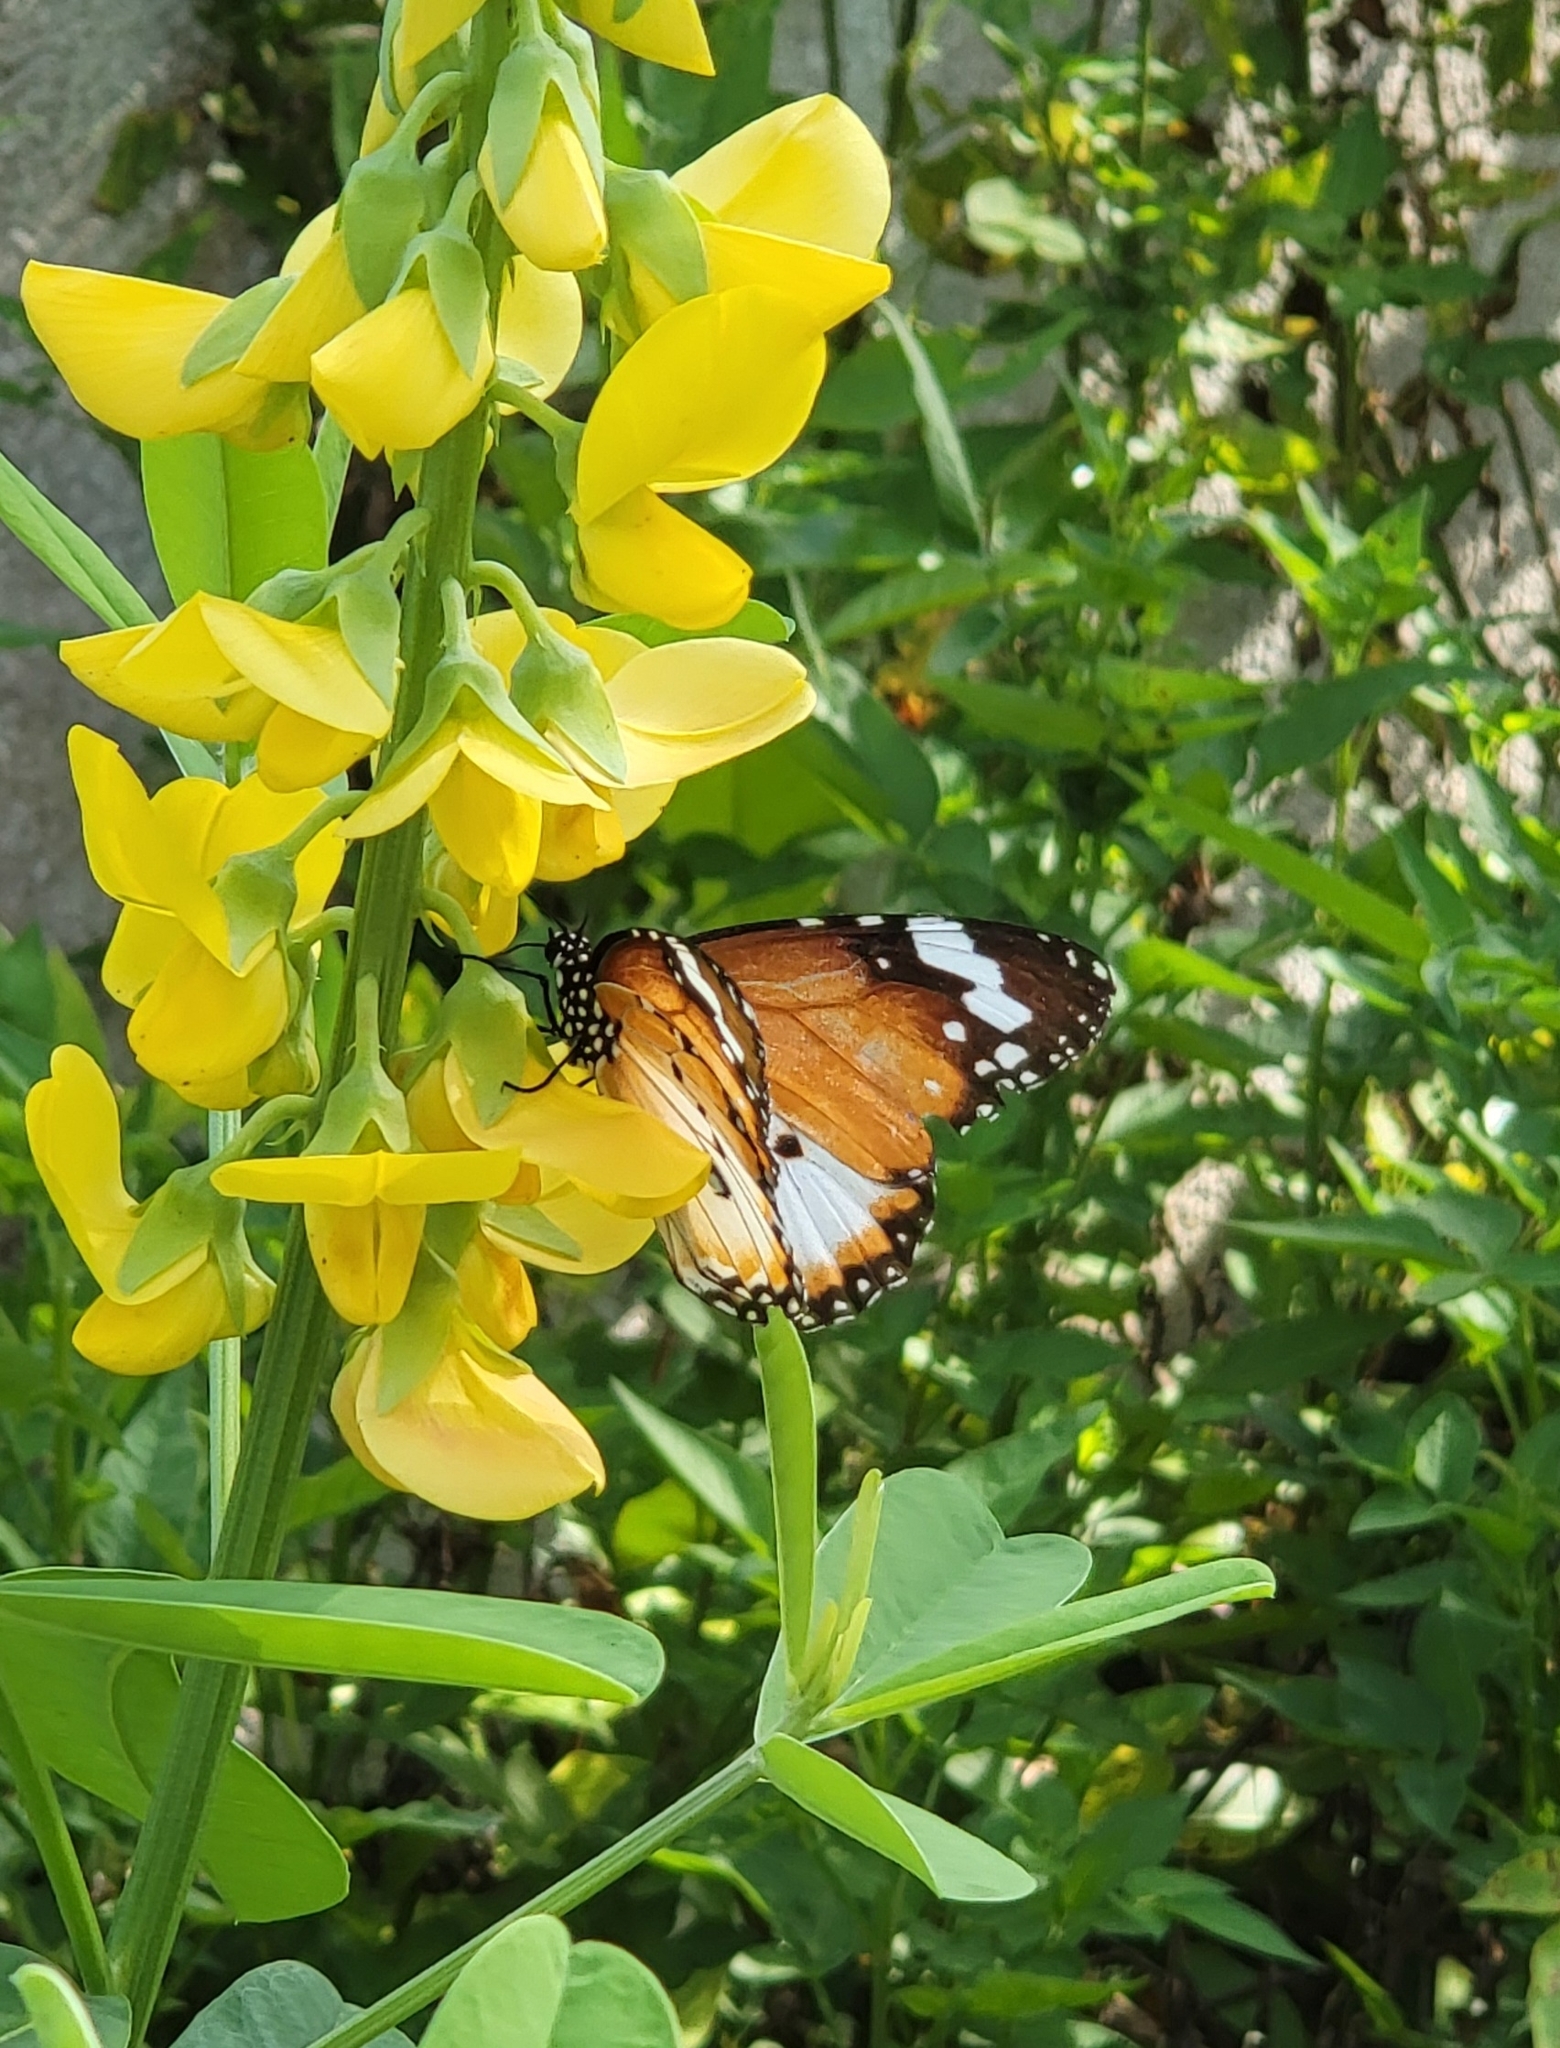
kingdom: Animalia
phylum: Arthropoda
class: Insecta
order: Lepidoptera
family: Nymphalidae
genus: Danaus
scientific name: Danaus chrysippus
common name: Plain tiger
